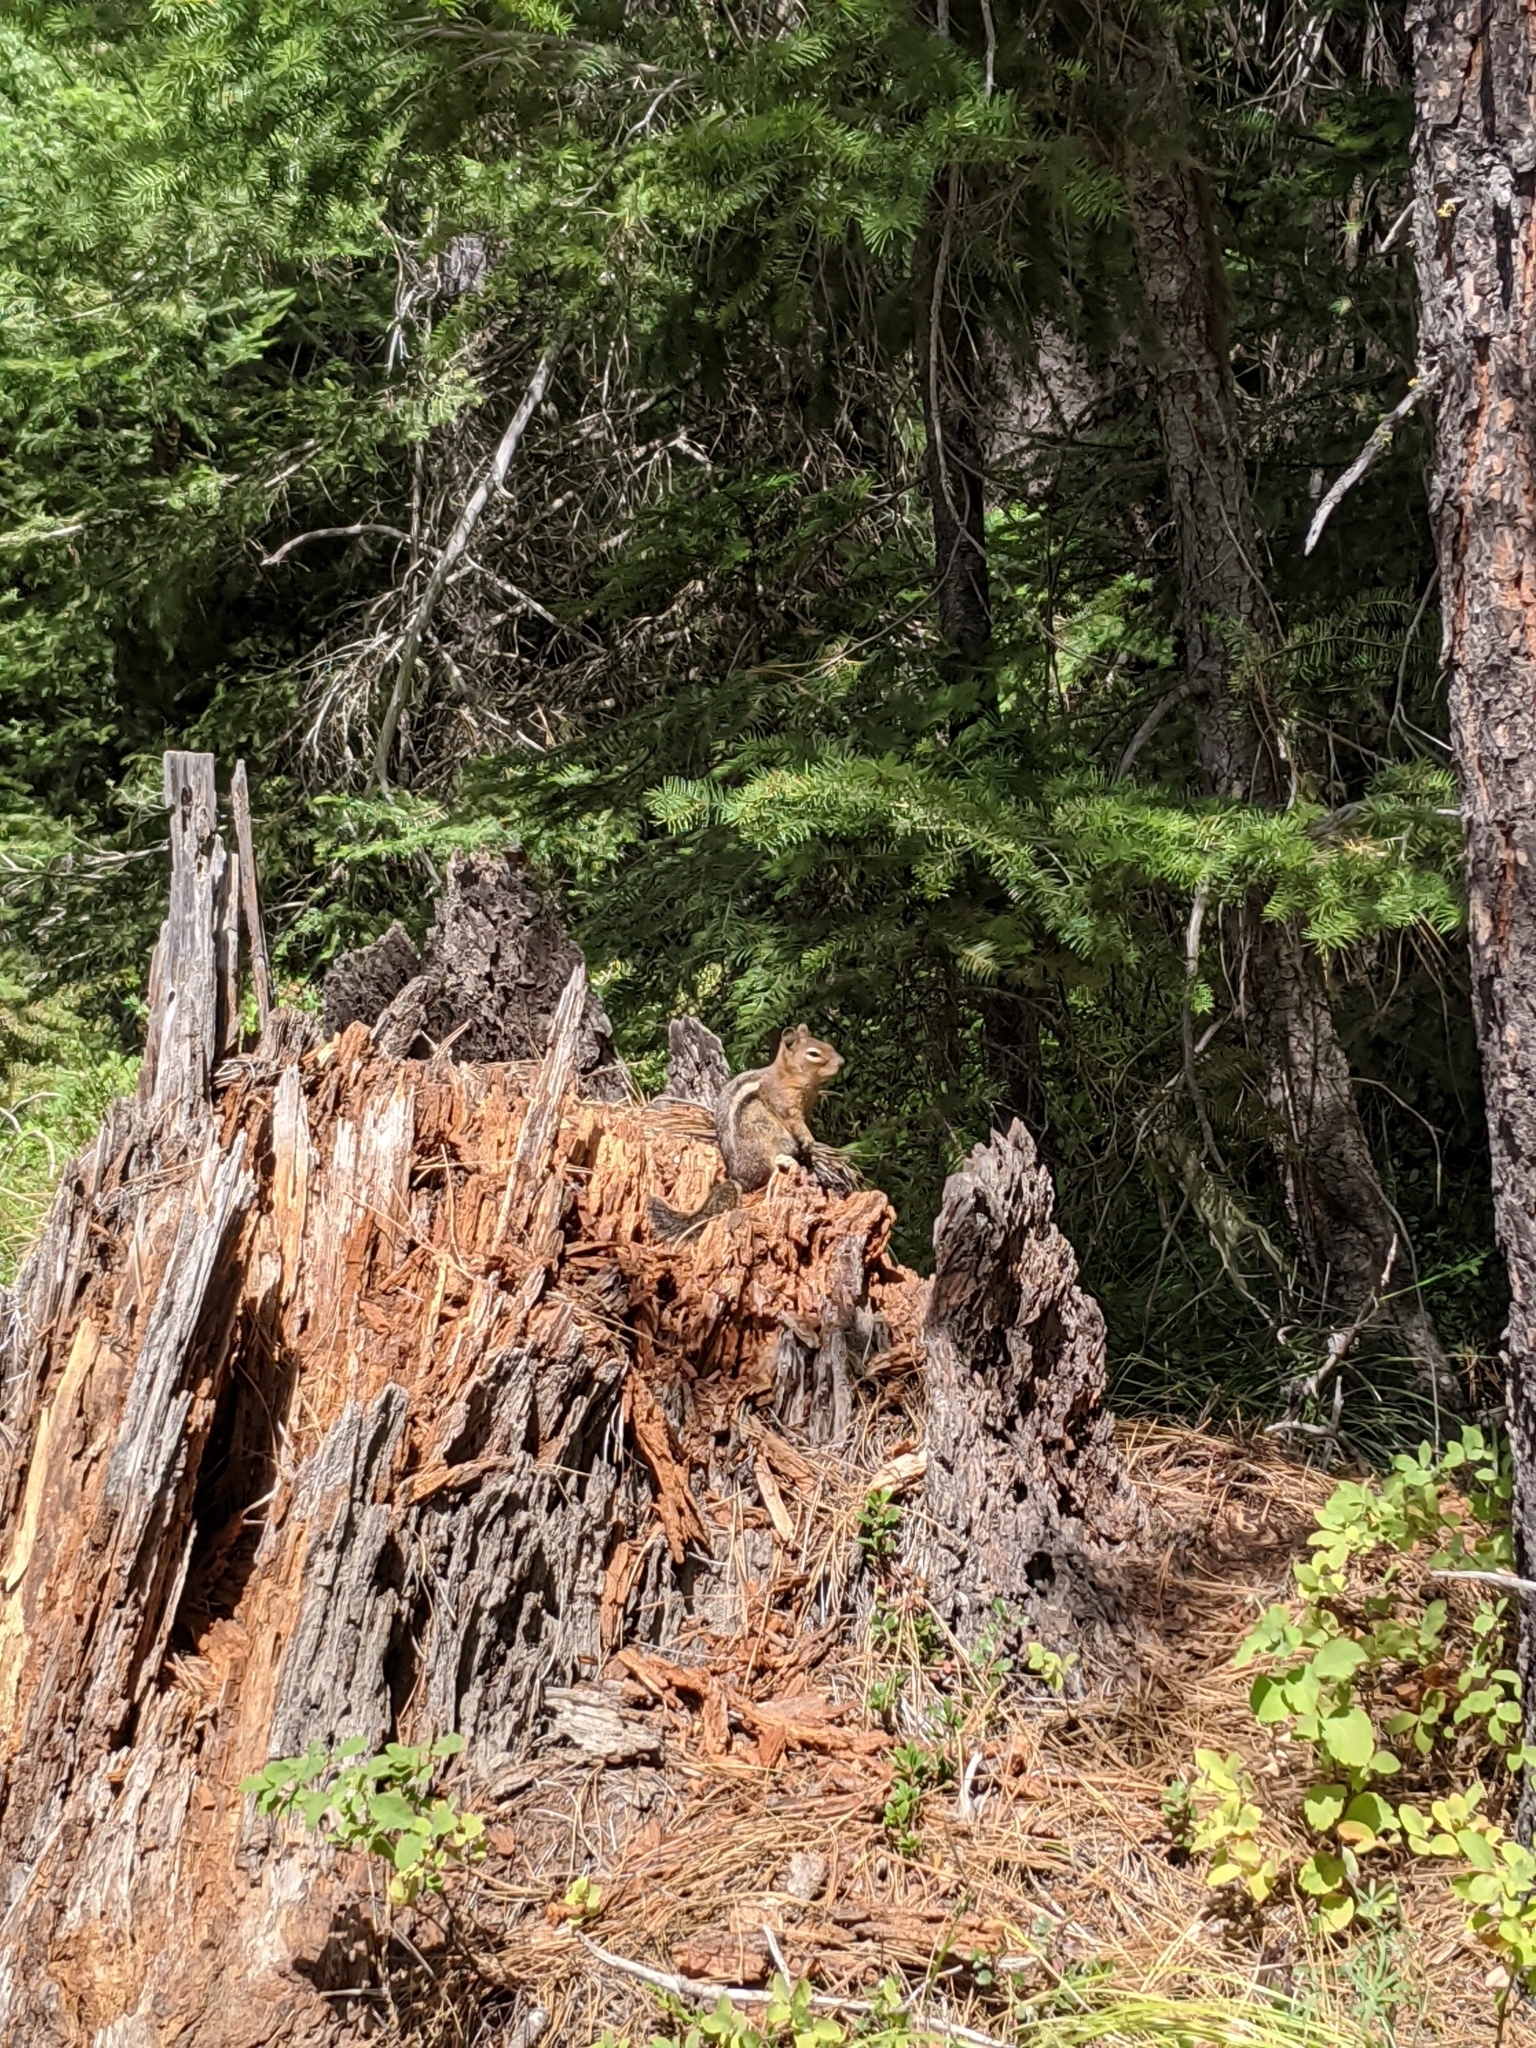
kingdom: Animalia
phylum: Chordata
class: Mammalia
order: Rodentia
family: Sciuridae
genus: Callospermophilus
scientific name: Callospermophilus saturatus
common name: Cascade golden-mantled ground squirrel
